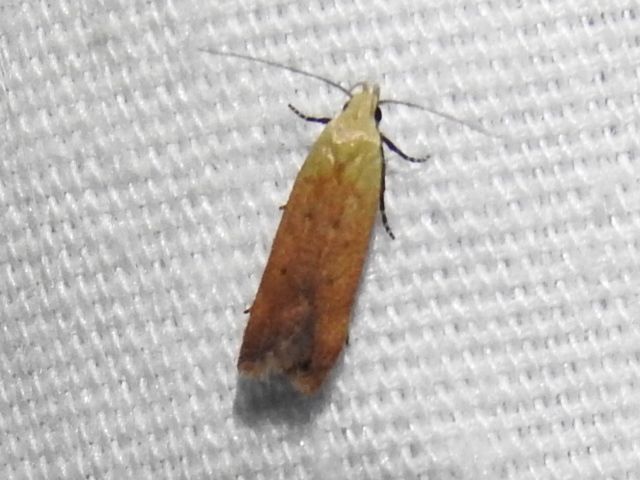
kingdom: Animalia
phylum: Arthropoda
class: Insecta
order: Lepidoptera
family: Gelechiidae
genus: Anacampsis
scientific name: Anacampsis fullonella
